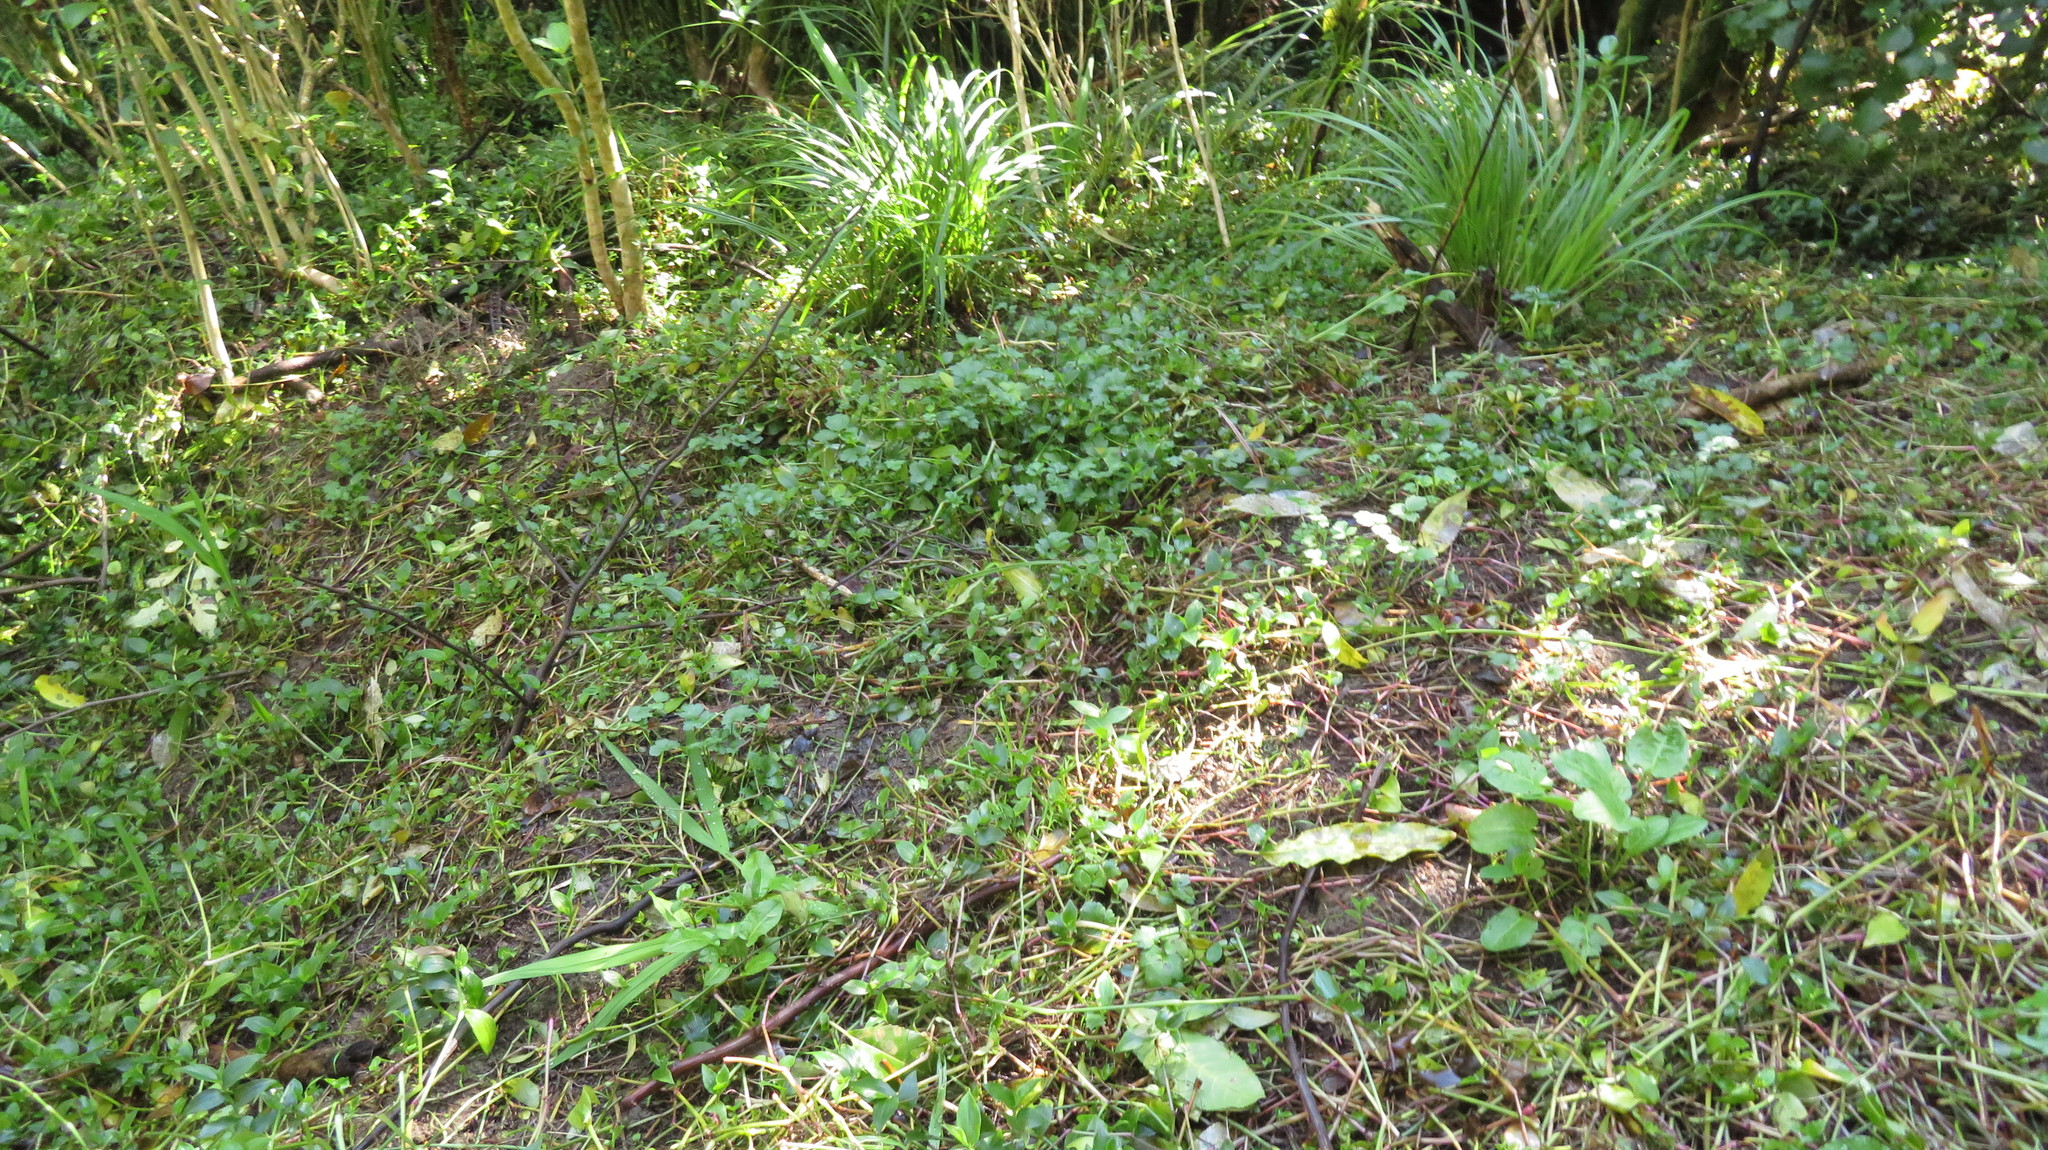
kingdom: Plantae
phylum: Tracheophyta
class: Magnoliopsida
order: Caryophyllales
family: Polygonaceae
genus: Rumex
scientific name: Rumex obtusifolius
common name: Bitter dock
